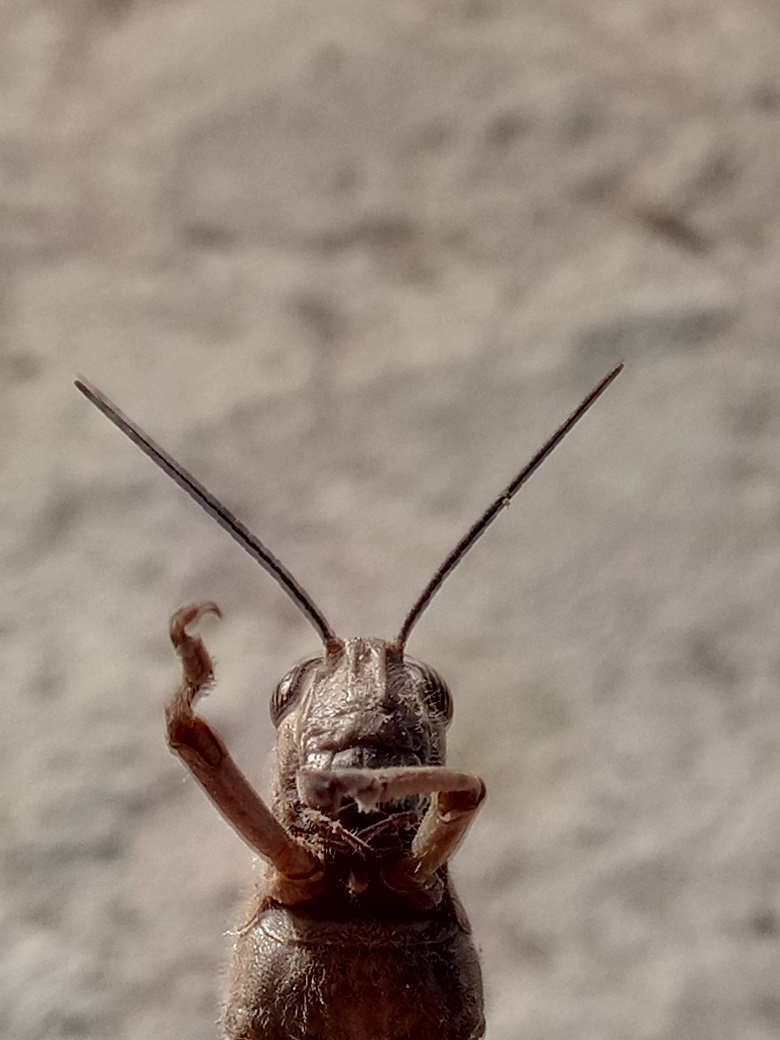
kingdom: Animalia
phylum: Arthropoda
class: Insecta
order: Orthoptera
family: Acrididae
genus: Anacridium
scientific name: Anacridium aegyptium
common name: Egyptian grasshopper
